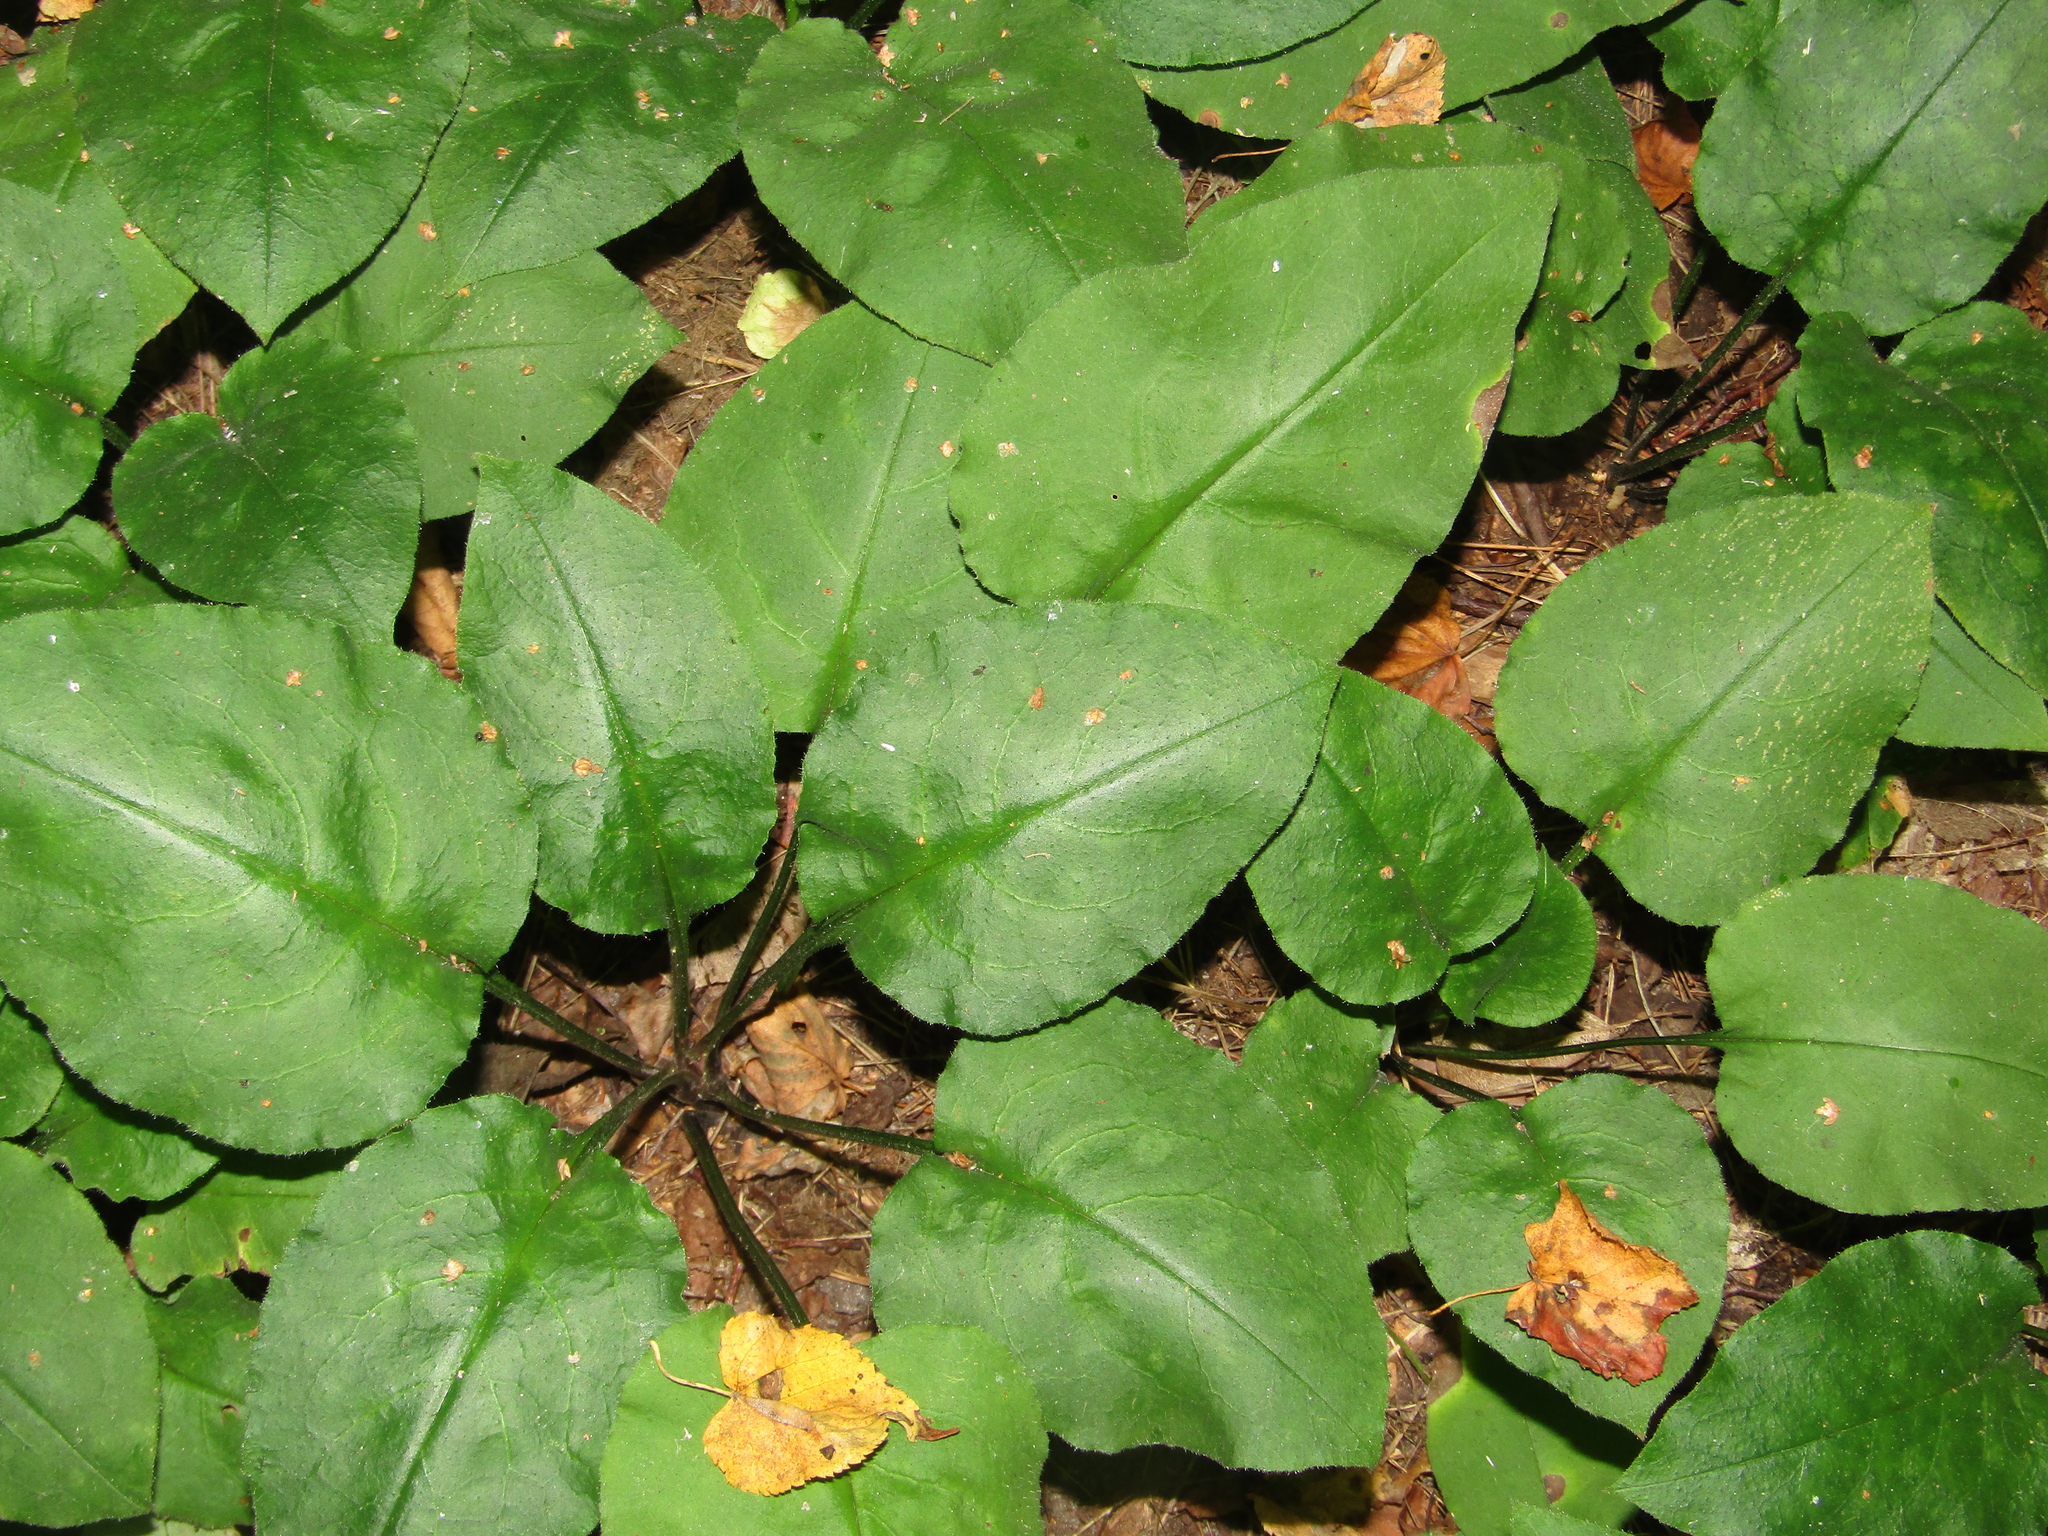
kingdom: Plantae
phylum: Tracheophyta
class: Magnoliopsida
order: Boraginales
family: Boraginaceae
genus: Pulmonaria
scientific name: Pulmonaria obscura
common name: Suffolk lungwort
